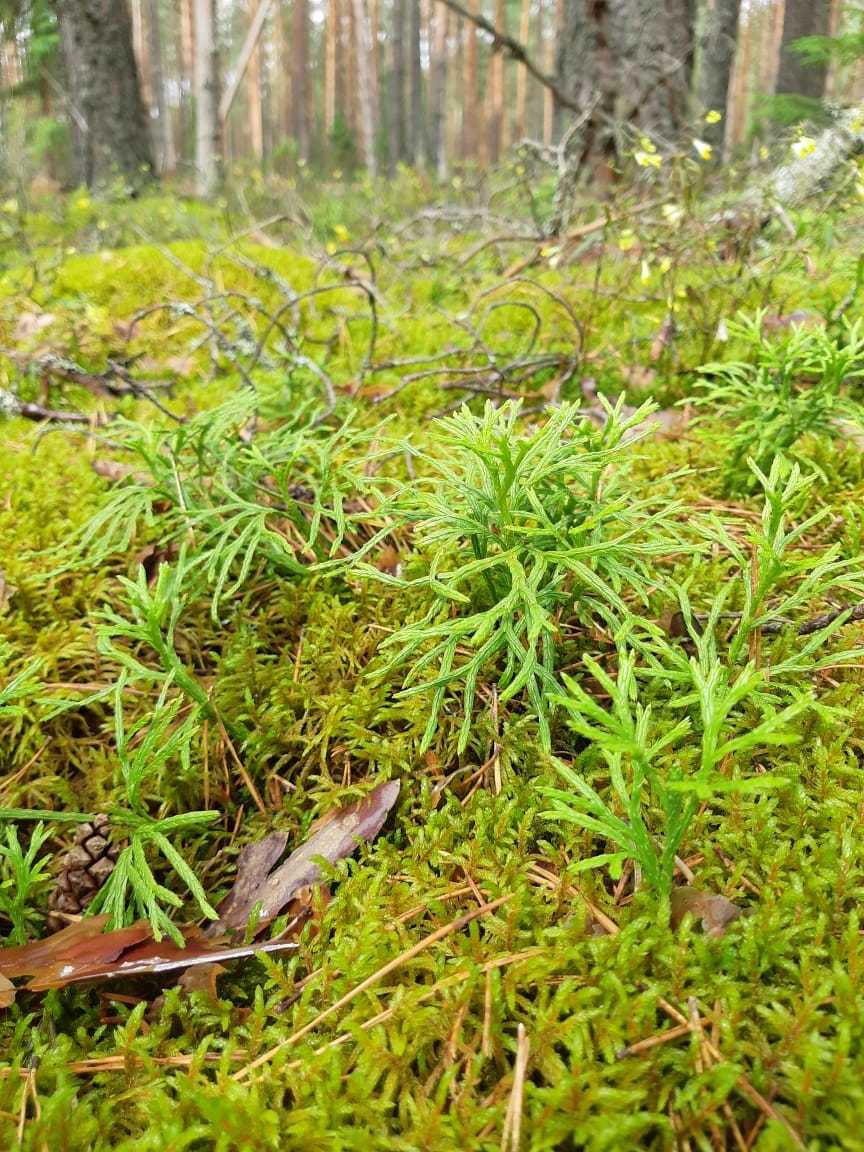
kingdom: Plantae
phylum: Tracheophyta
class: Lycopodiopsida
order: Lycopodiales
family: Lycopodiaceae
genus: Diphasiastrum
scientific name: Diphasiastrum complanatum
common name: Northern running-pine
